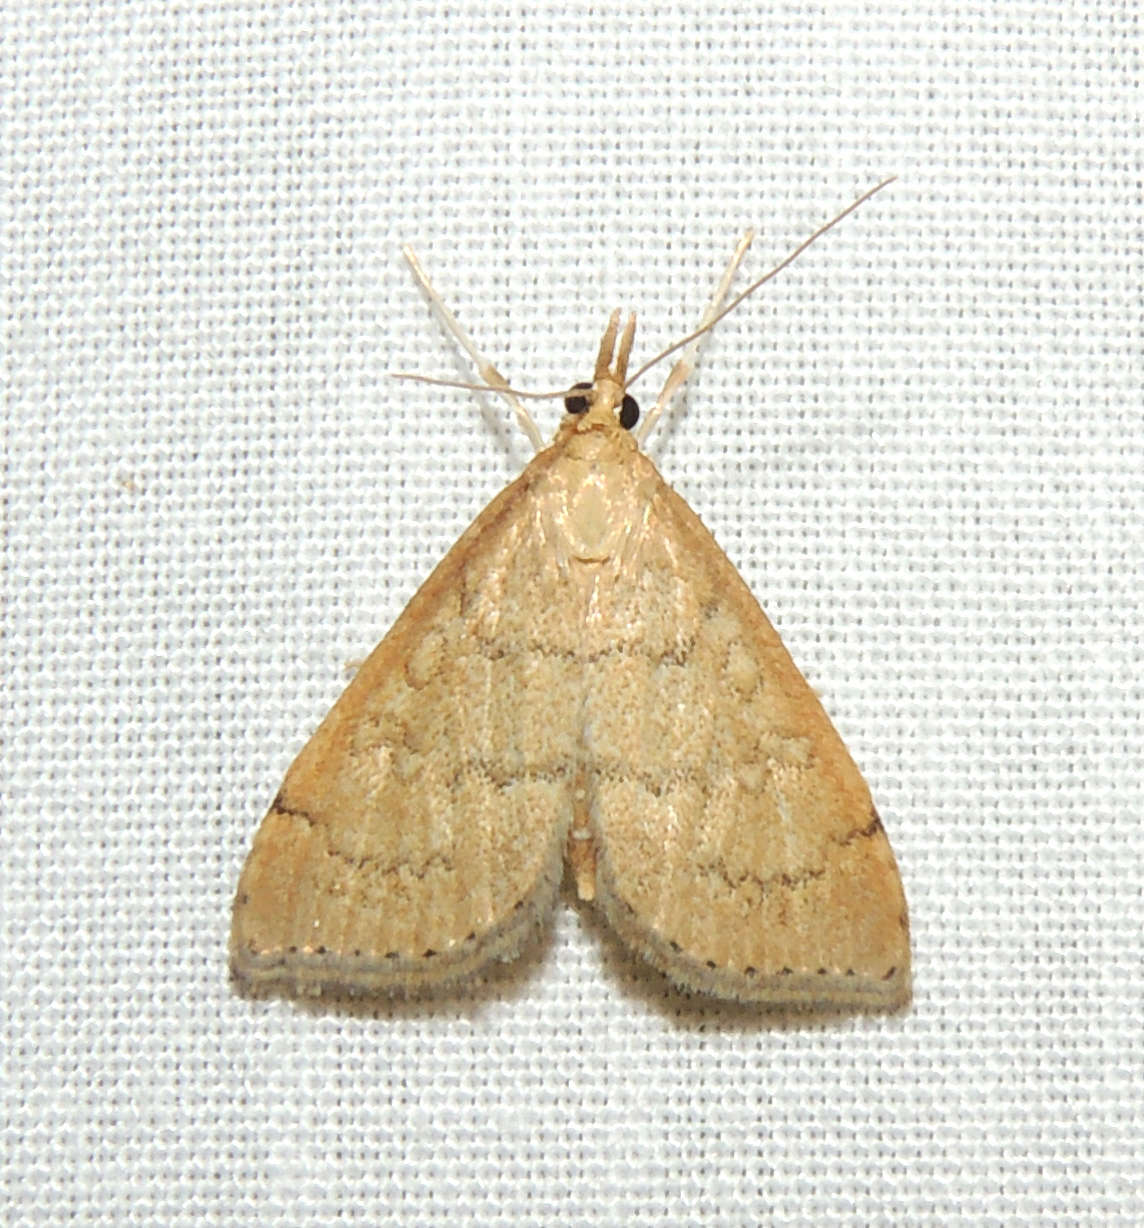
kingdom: Animalia
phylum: Arthropoda
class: Insecta
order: Lepidoptera
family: Crambidae
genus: Metasia
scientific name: Metasia dicealis
